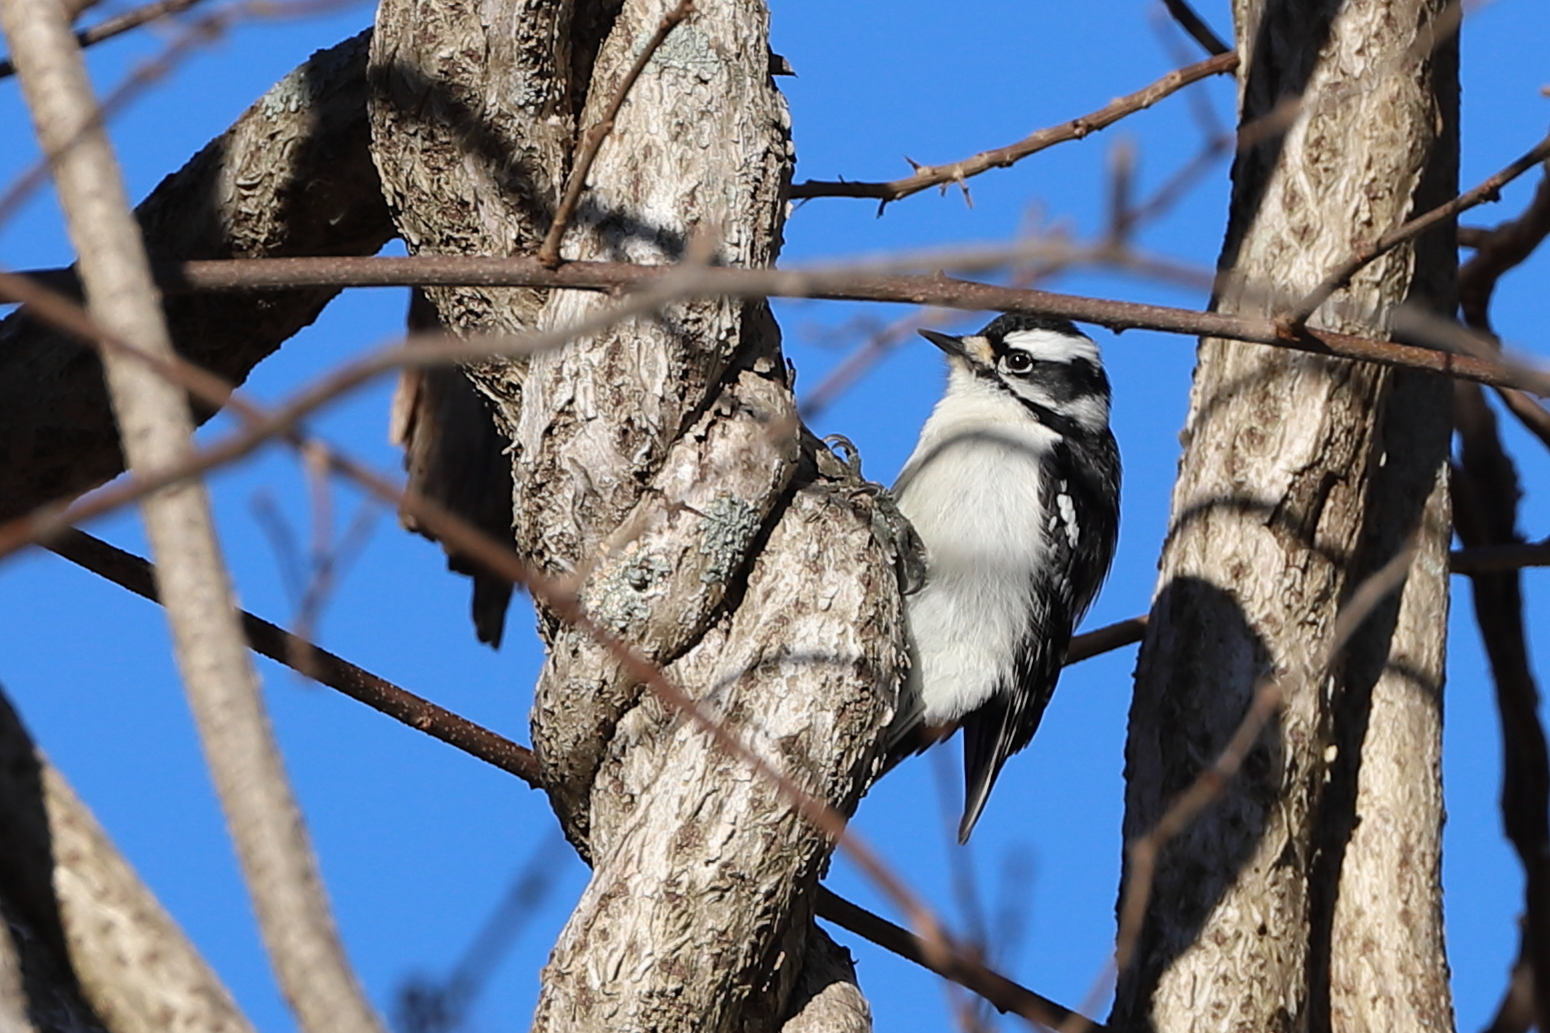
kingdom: Animalia
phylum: Chordata
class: Aves
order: Piciformes
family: Picidae
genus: Dryobates
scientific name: Dryobates pubescens
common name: Downy woodpecker
